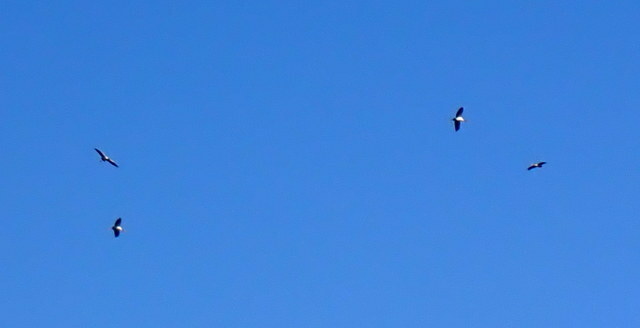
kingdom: Animalia
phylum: Chordata
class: Aves
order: Ciconiiformes
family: Ciconiidae
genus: Mycteria
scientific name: Mycteria americana
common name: Wood stork
